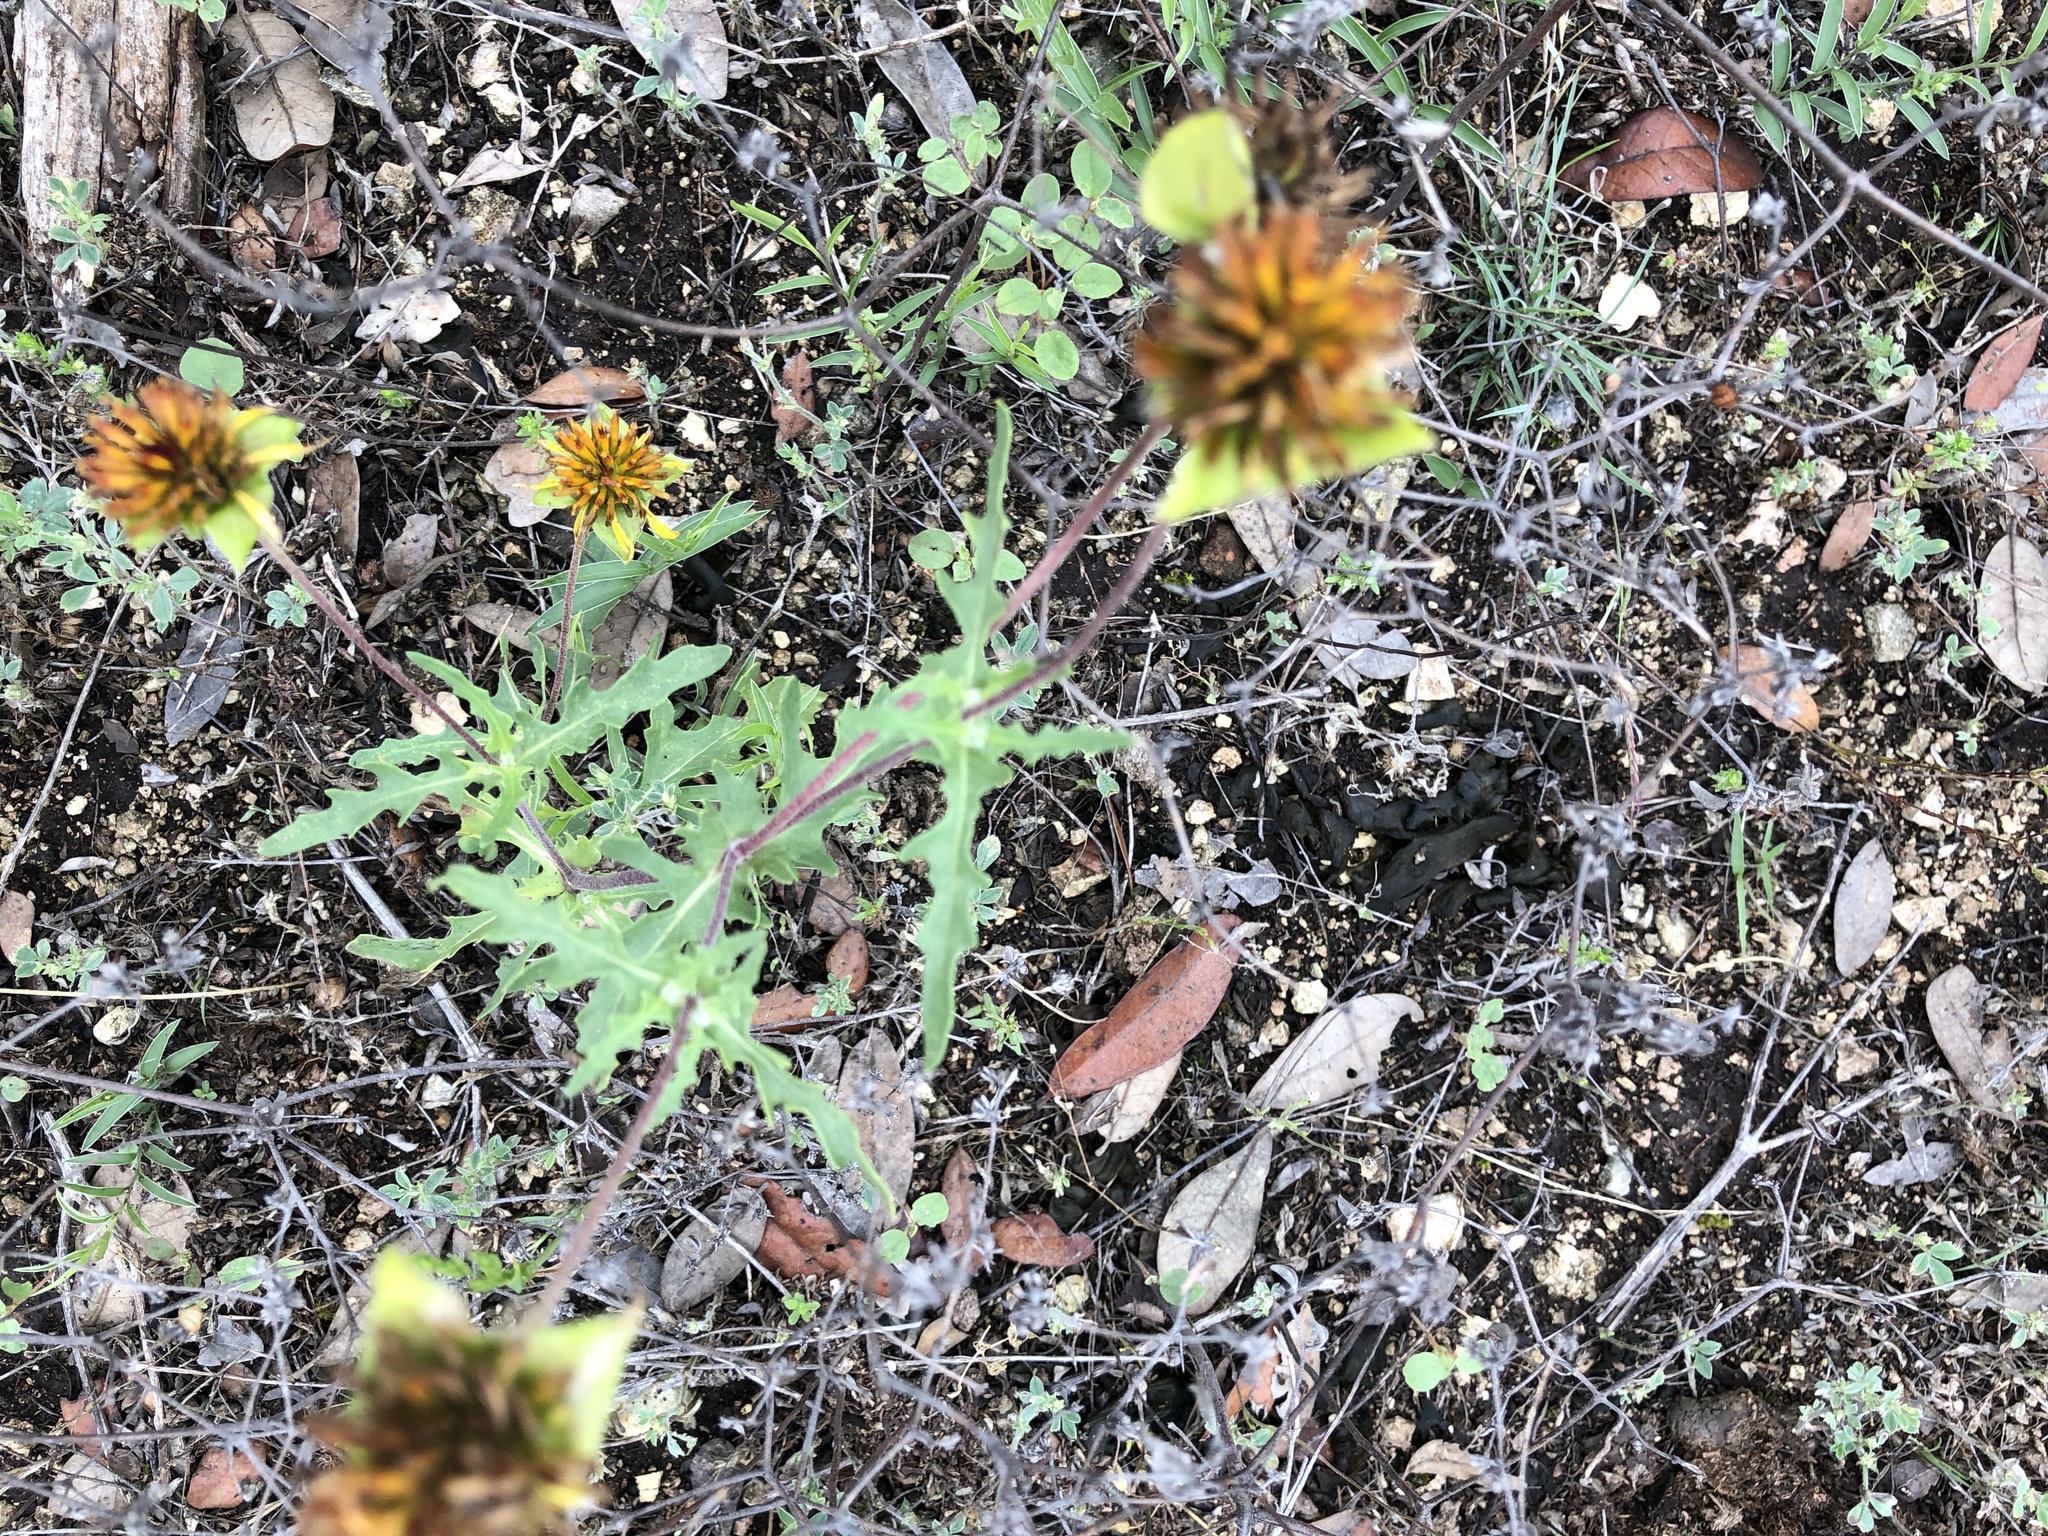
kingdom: Plantae
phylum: Tracheophyta
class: Magnoliopsida
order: Asterales
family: Asteraceae
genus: Tetragonotheca
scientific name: Tetragonotheca texana
